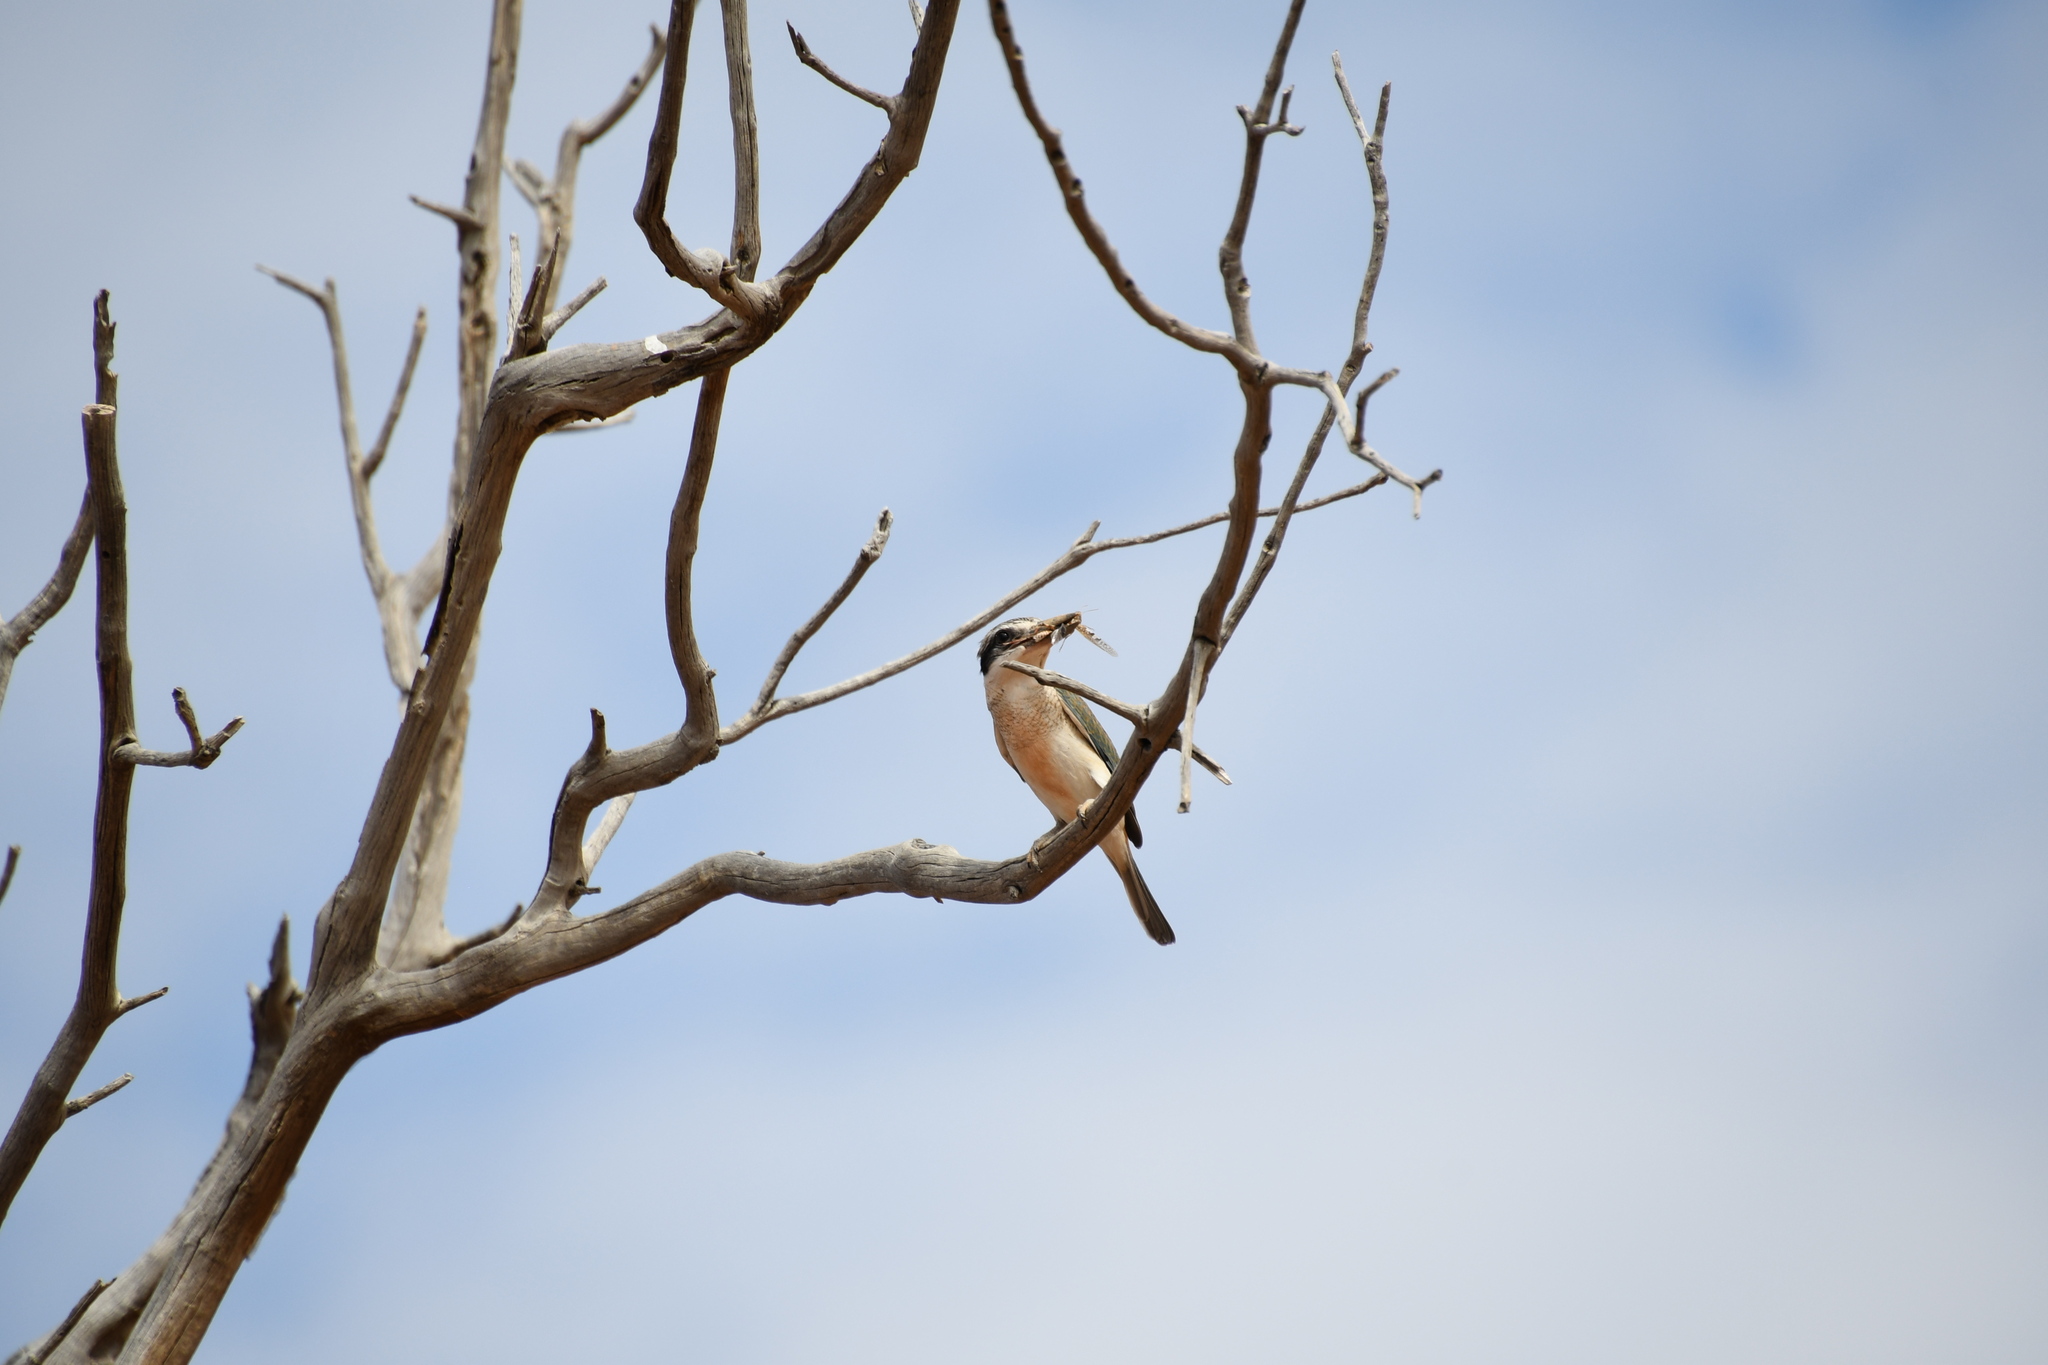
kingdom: Animalia
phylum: Chordata
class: Aves
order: Coraciiformes
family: Alcedinidae
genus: Todiramphus
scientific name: Todiramphus pyrrhopygius
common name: Red-backed kingfisher
